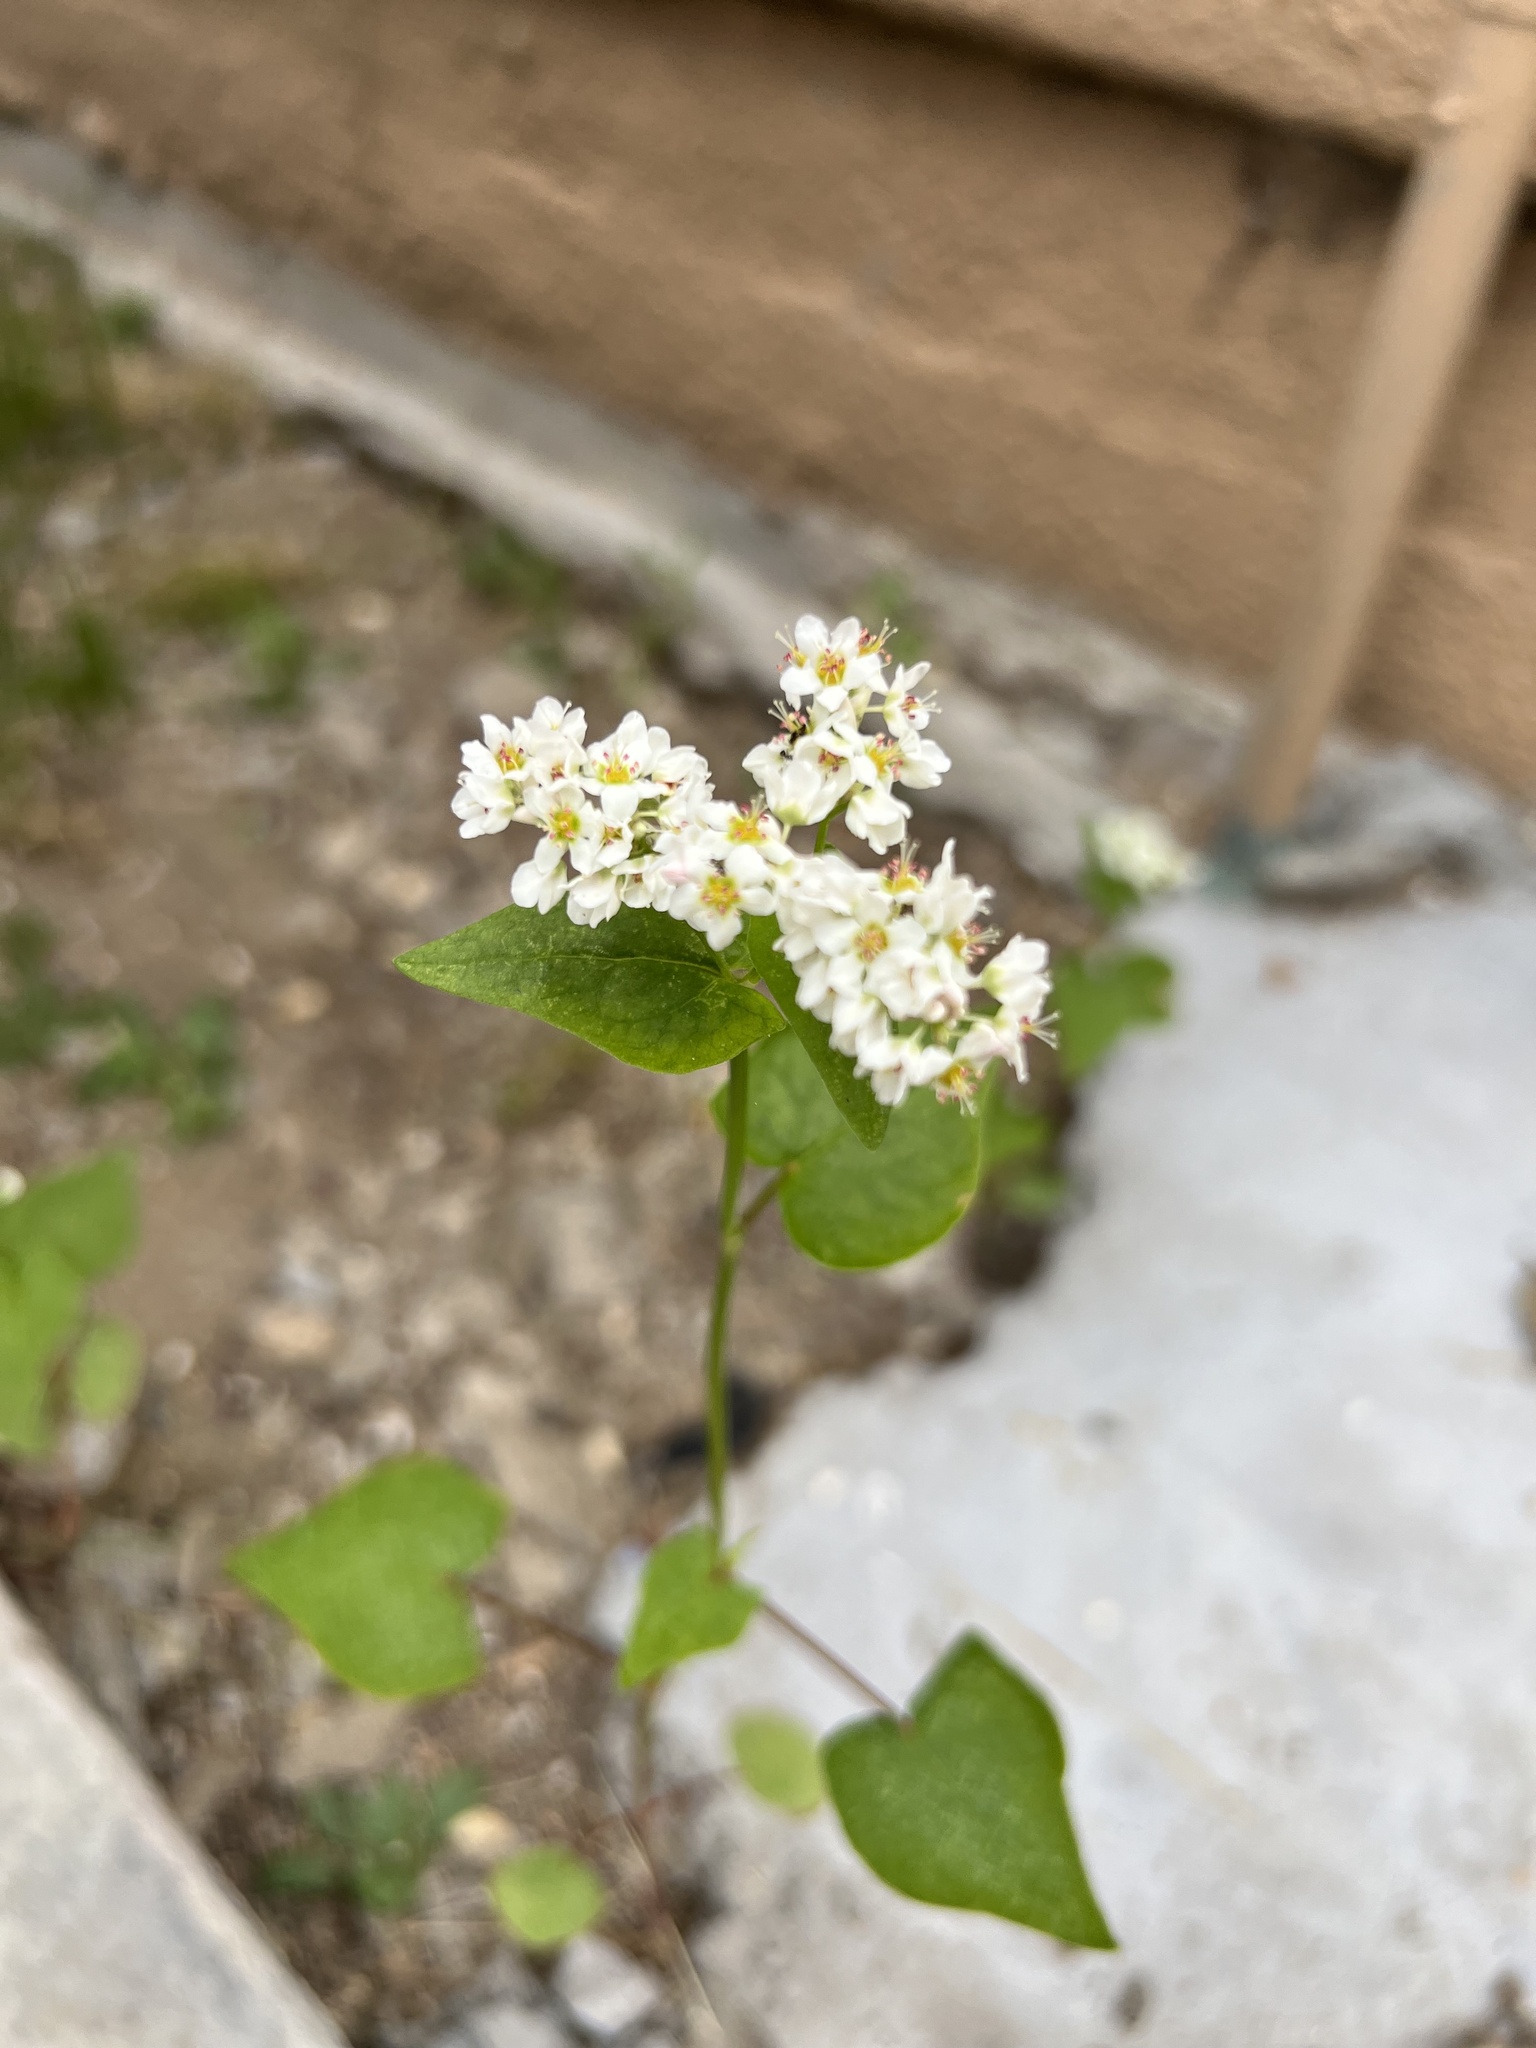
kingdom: Plantae
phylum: Tracheophyta
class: Magnoliopsida
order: Caryophyllales
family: Polygonaceae
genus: Fagopyrum
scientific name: Fagopyrum esculentum
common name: Buckwheat
